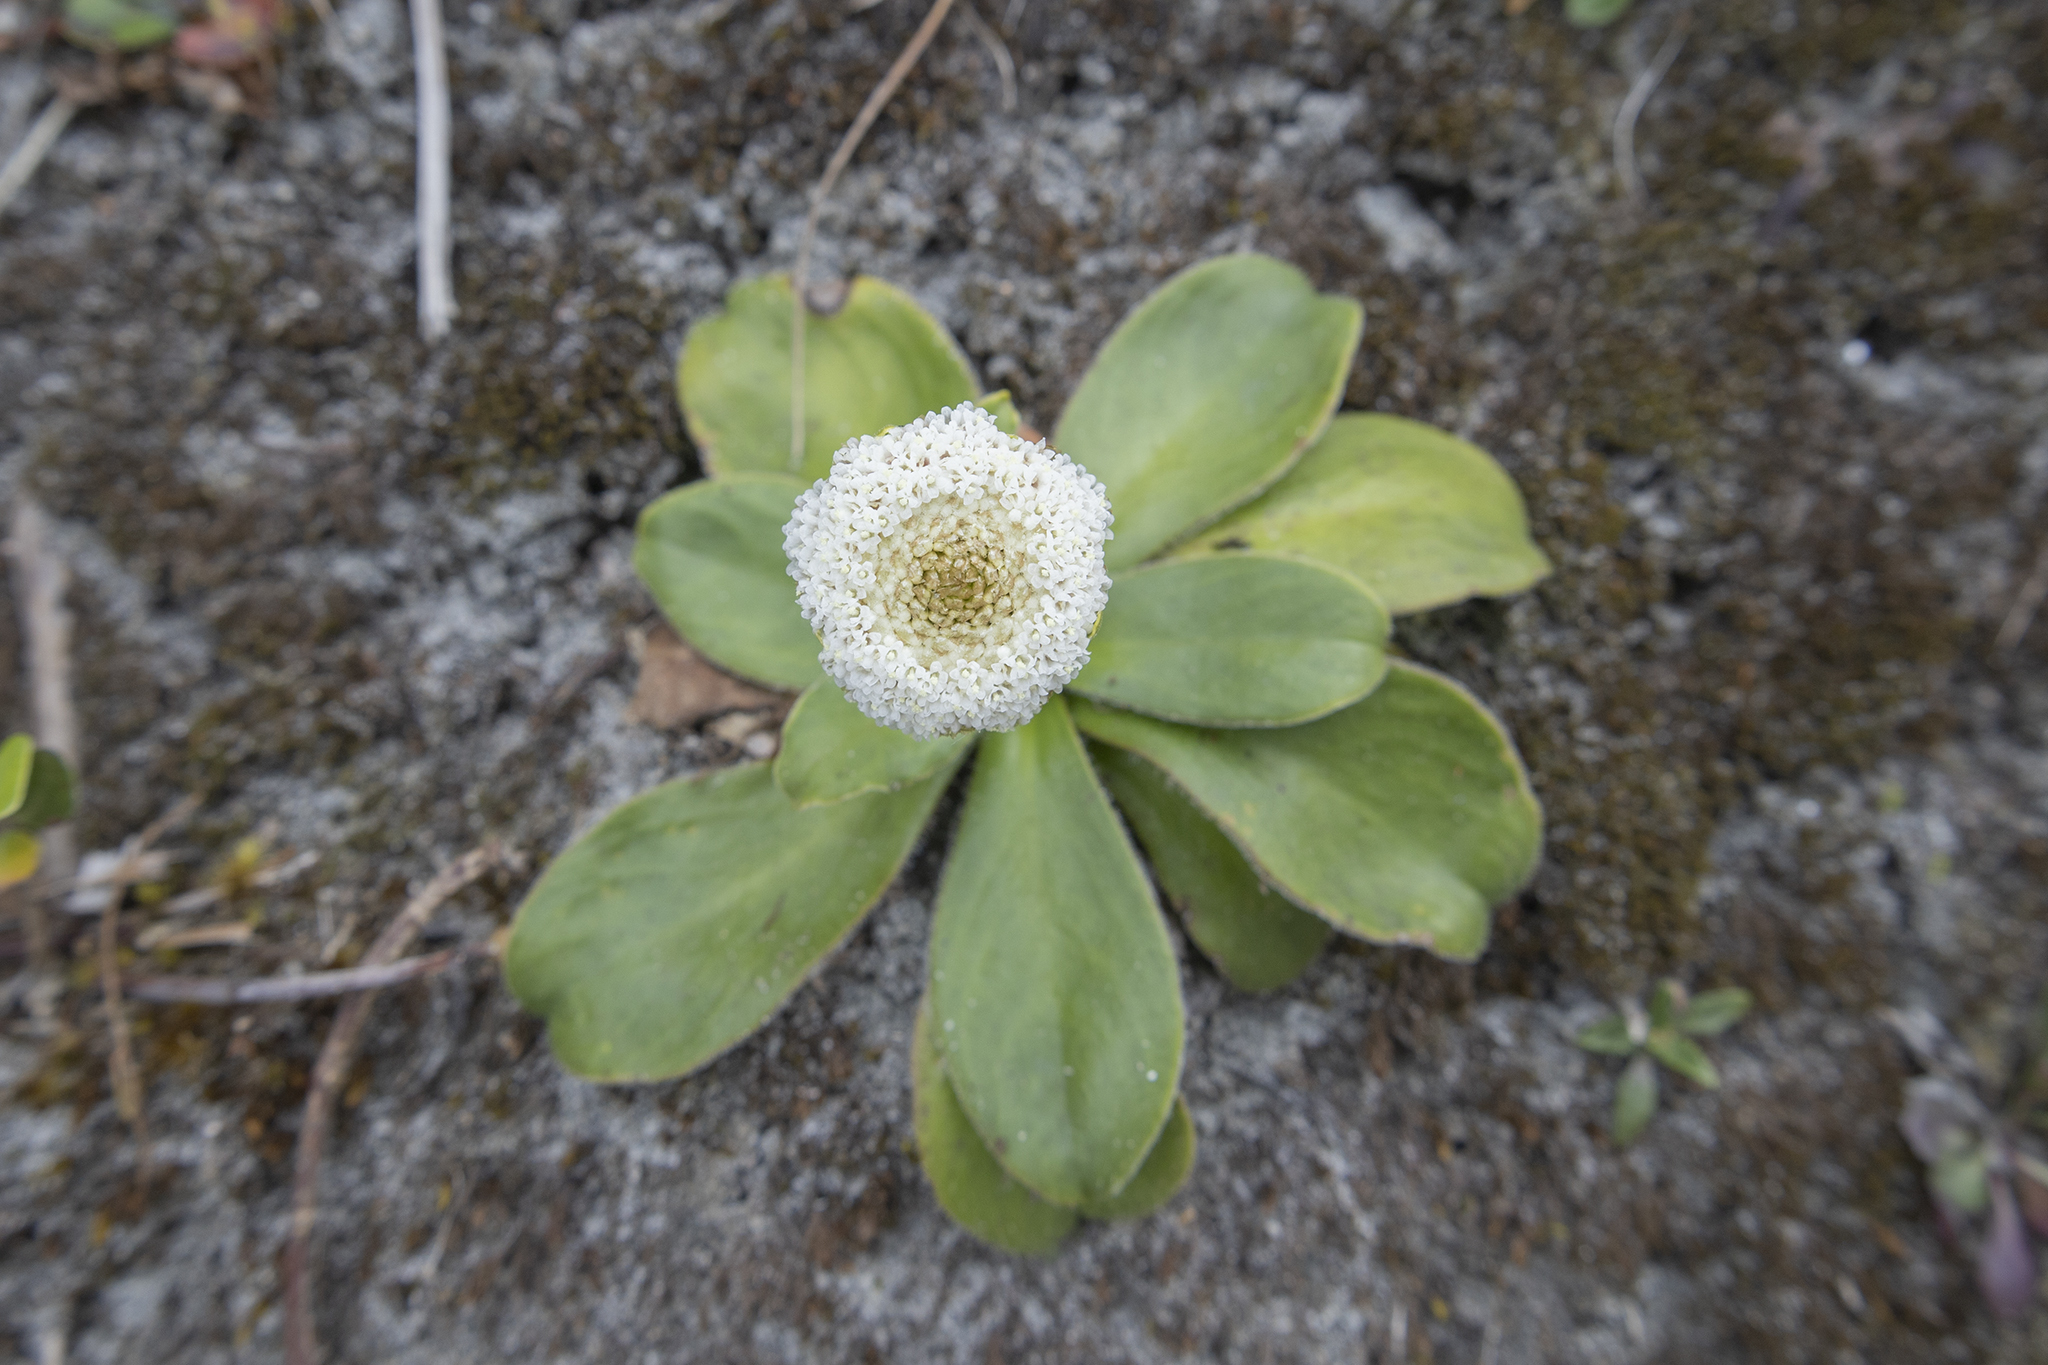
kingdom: Plantae
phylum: Tracheophyta
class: Magnoliopsida
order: Asterales
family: Asteraceae
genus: Craspedia
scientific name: Craspedia uniflora
